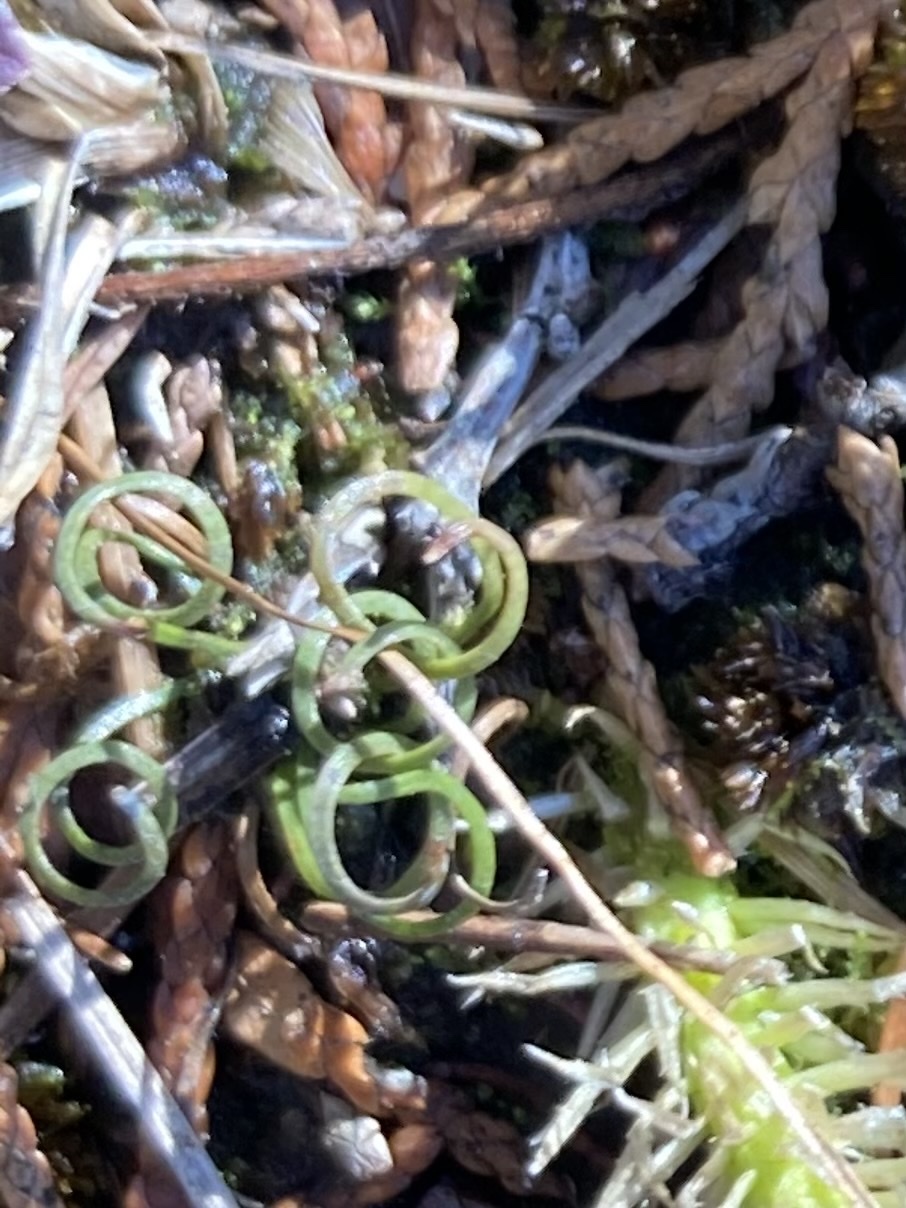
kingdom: Plantae
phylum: Tracheophyta
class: Polypodiopsida
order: Schizaeales
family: Schizaeaceae
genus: Schizaea
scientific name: Schizaea pusilla
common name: Curly-grass fern
